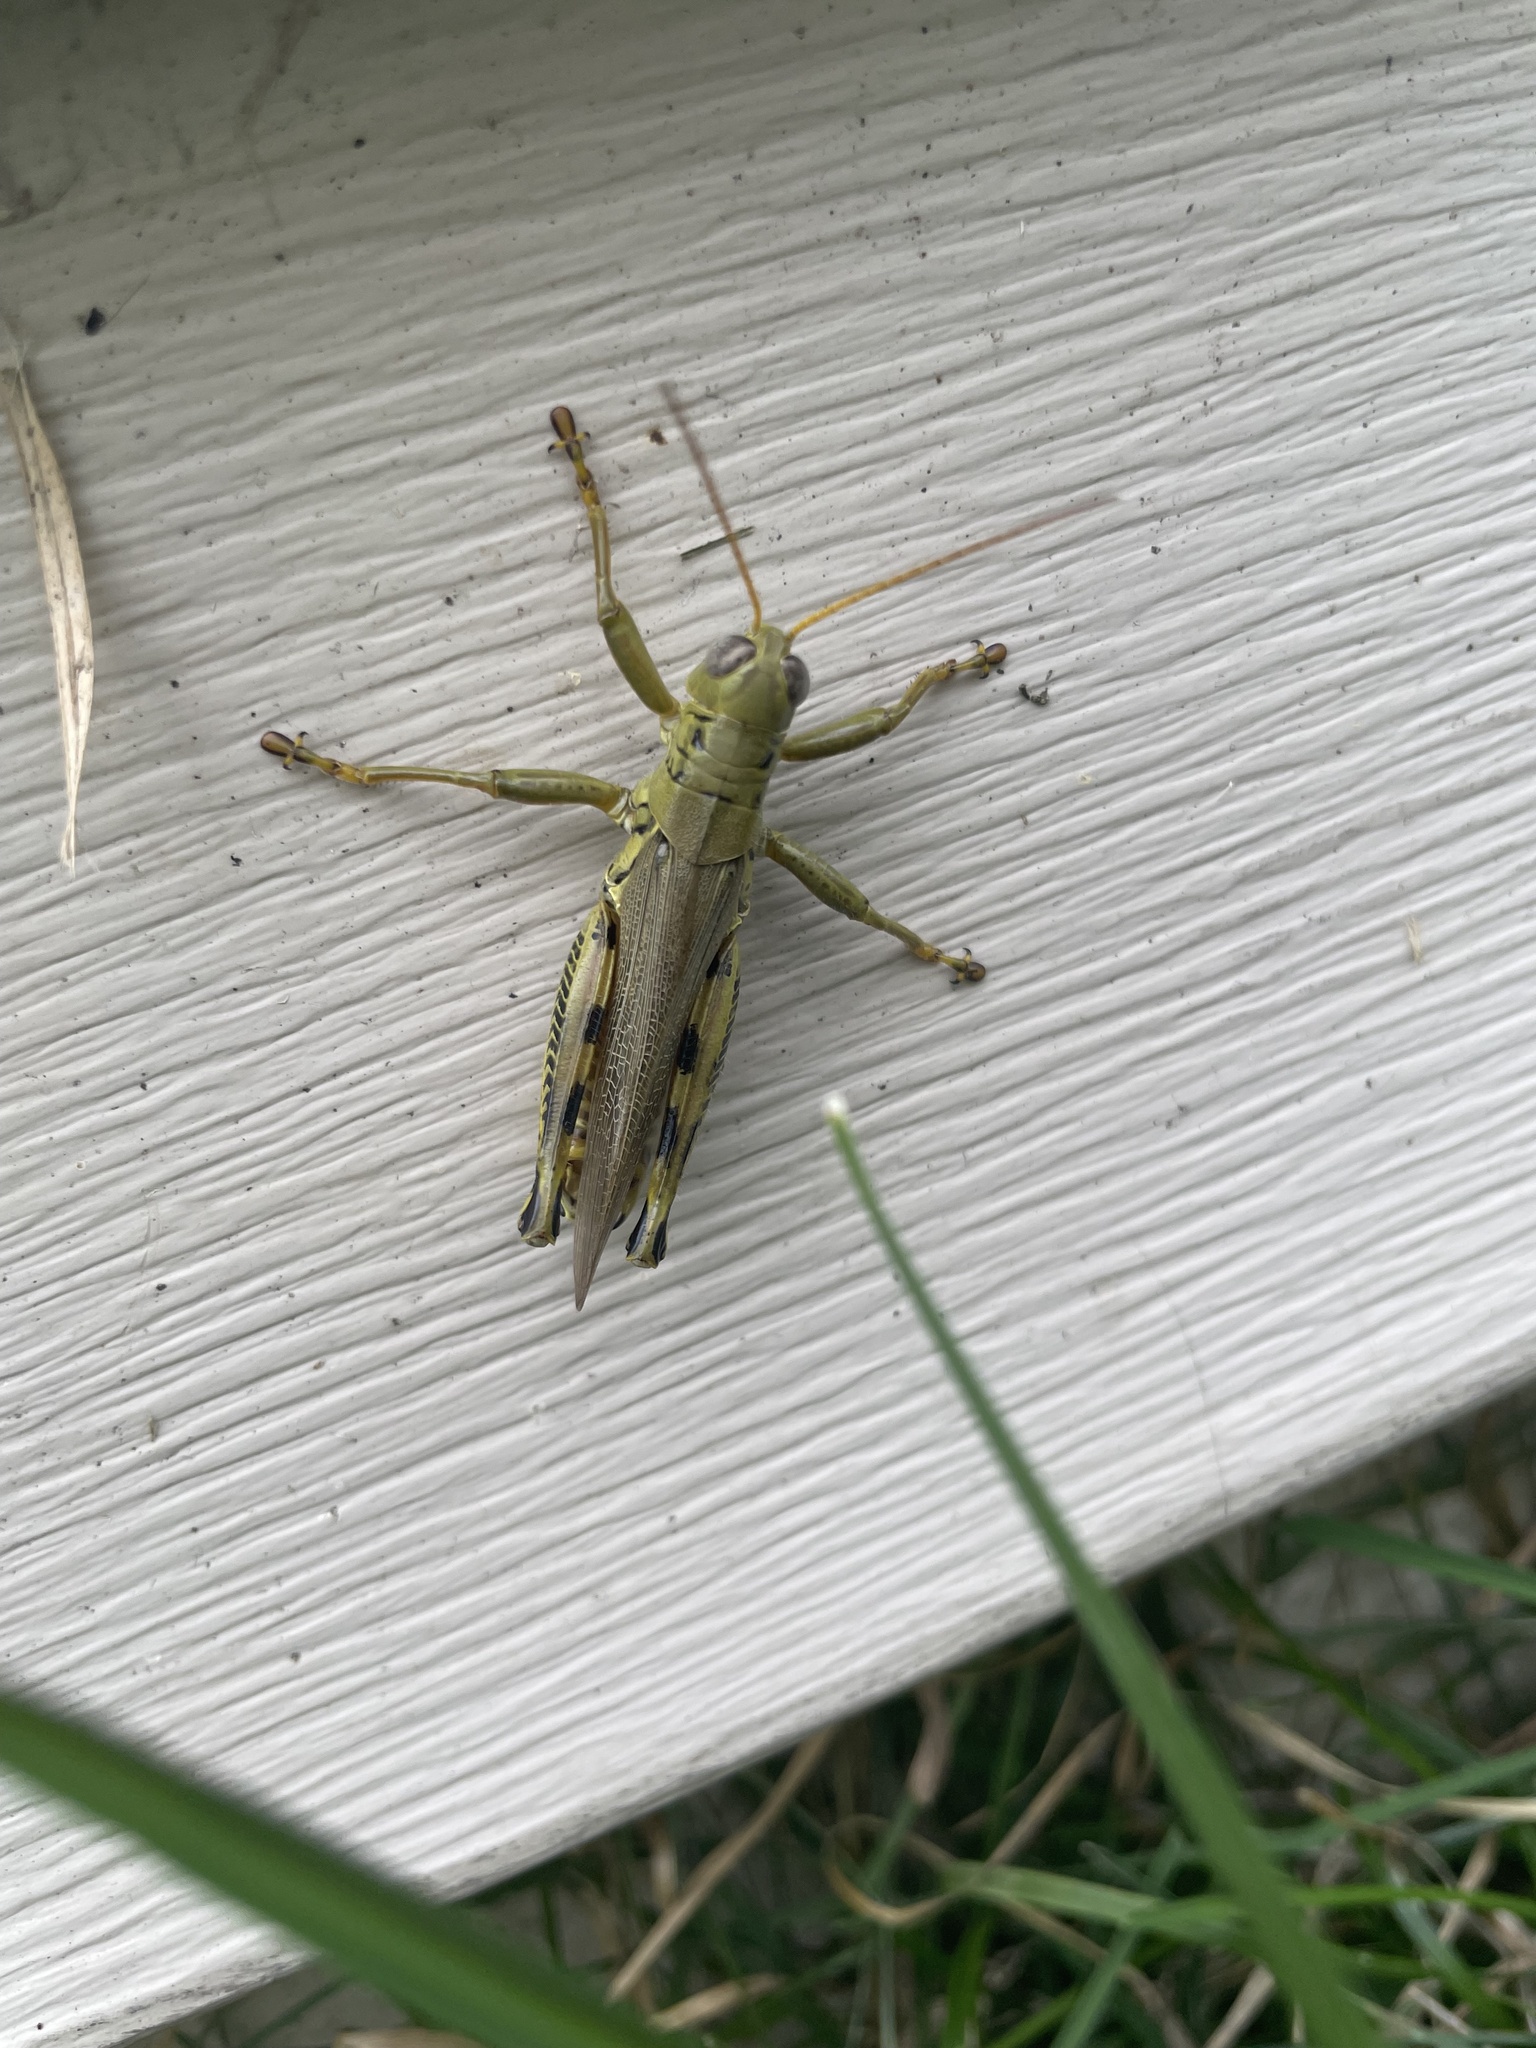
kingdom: Animalia
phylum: Arthropoda
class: Insecta
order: Orthoptera
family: Acrididae
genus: Melanoplus
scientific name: Melanoplus differentialis
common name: Differential grasshopper
